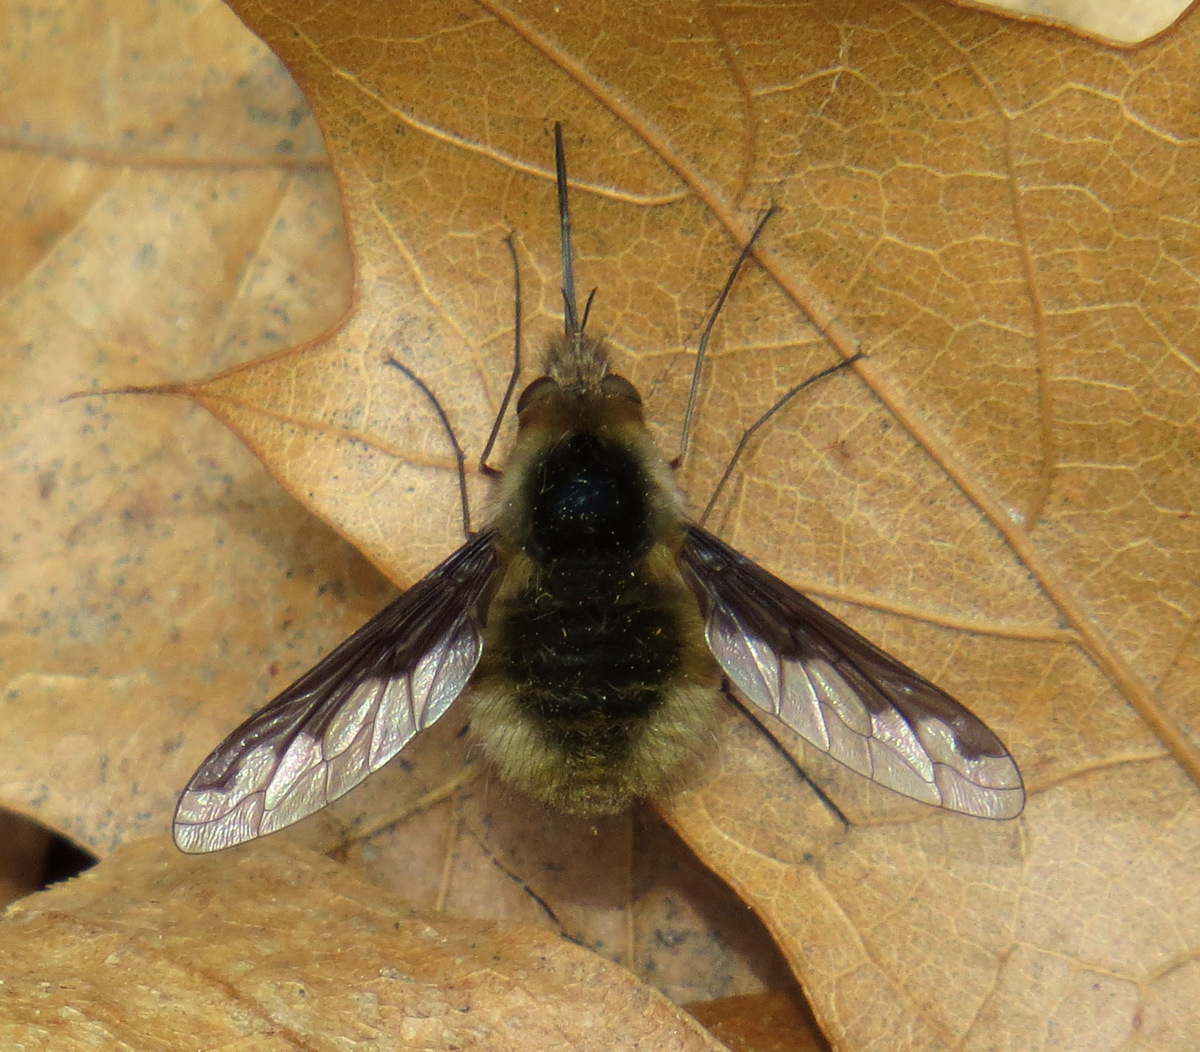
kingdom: Animalia
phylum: Arthropoda
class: Insecta
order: Diptera
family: Bombyliidae
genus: Bombylius
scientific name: Bombylius major
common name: Bee fly
